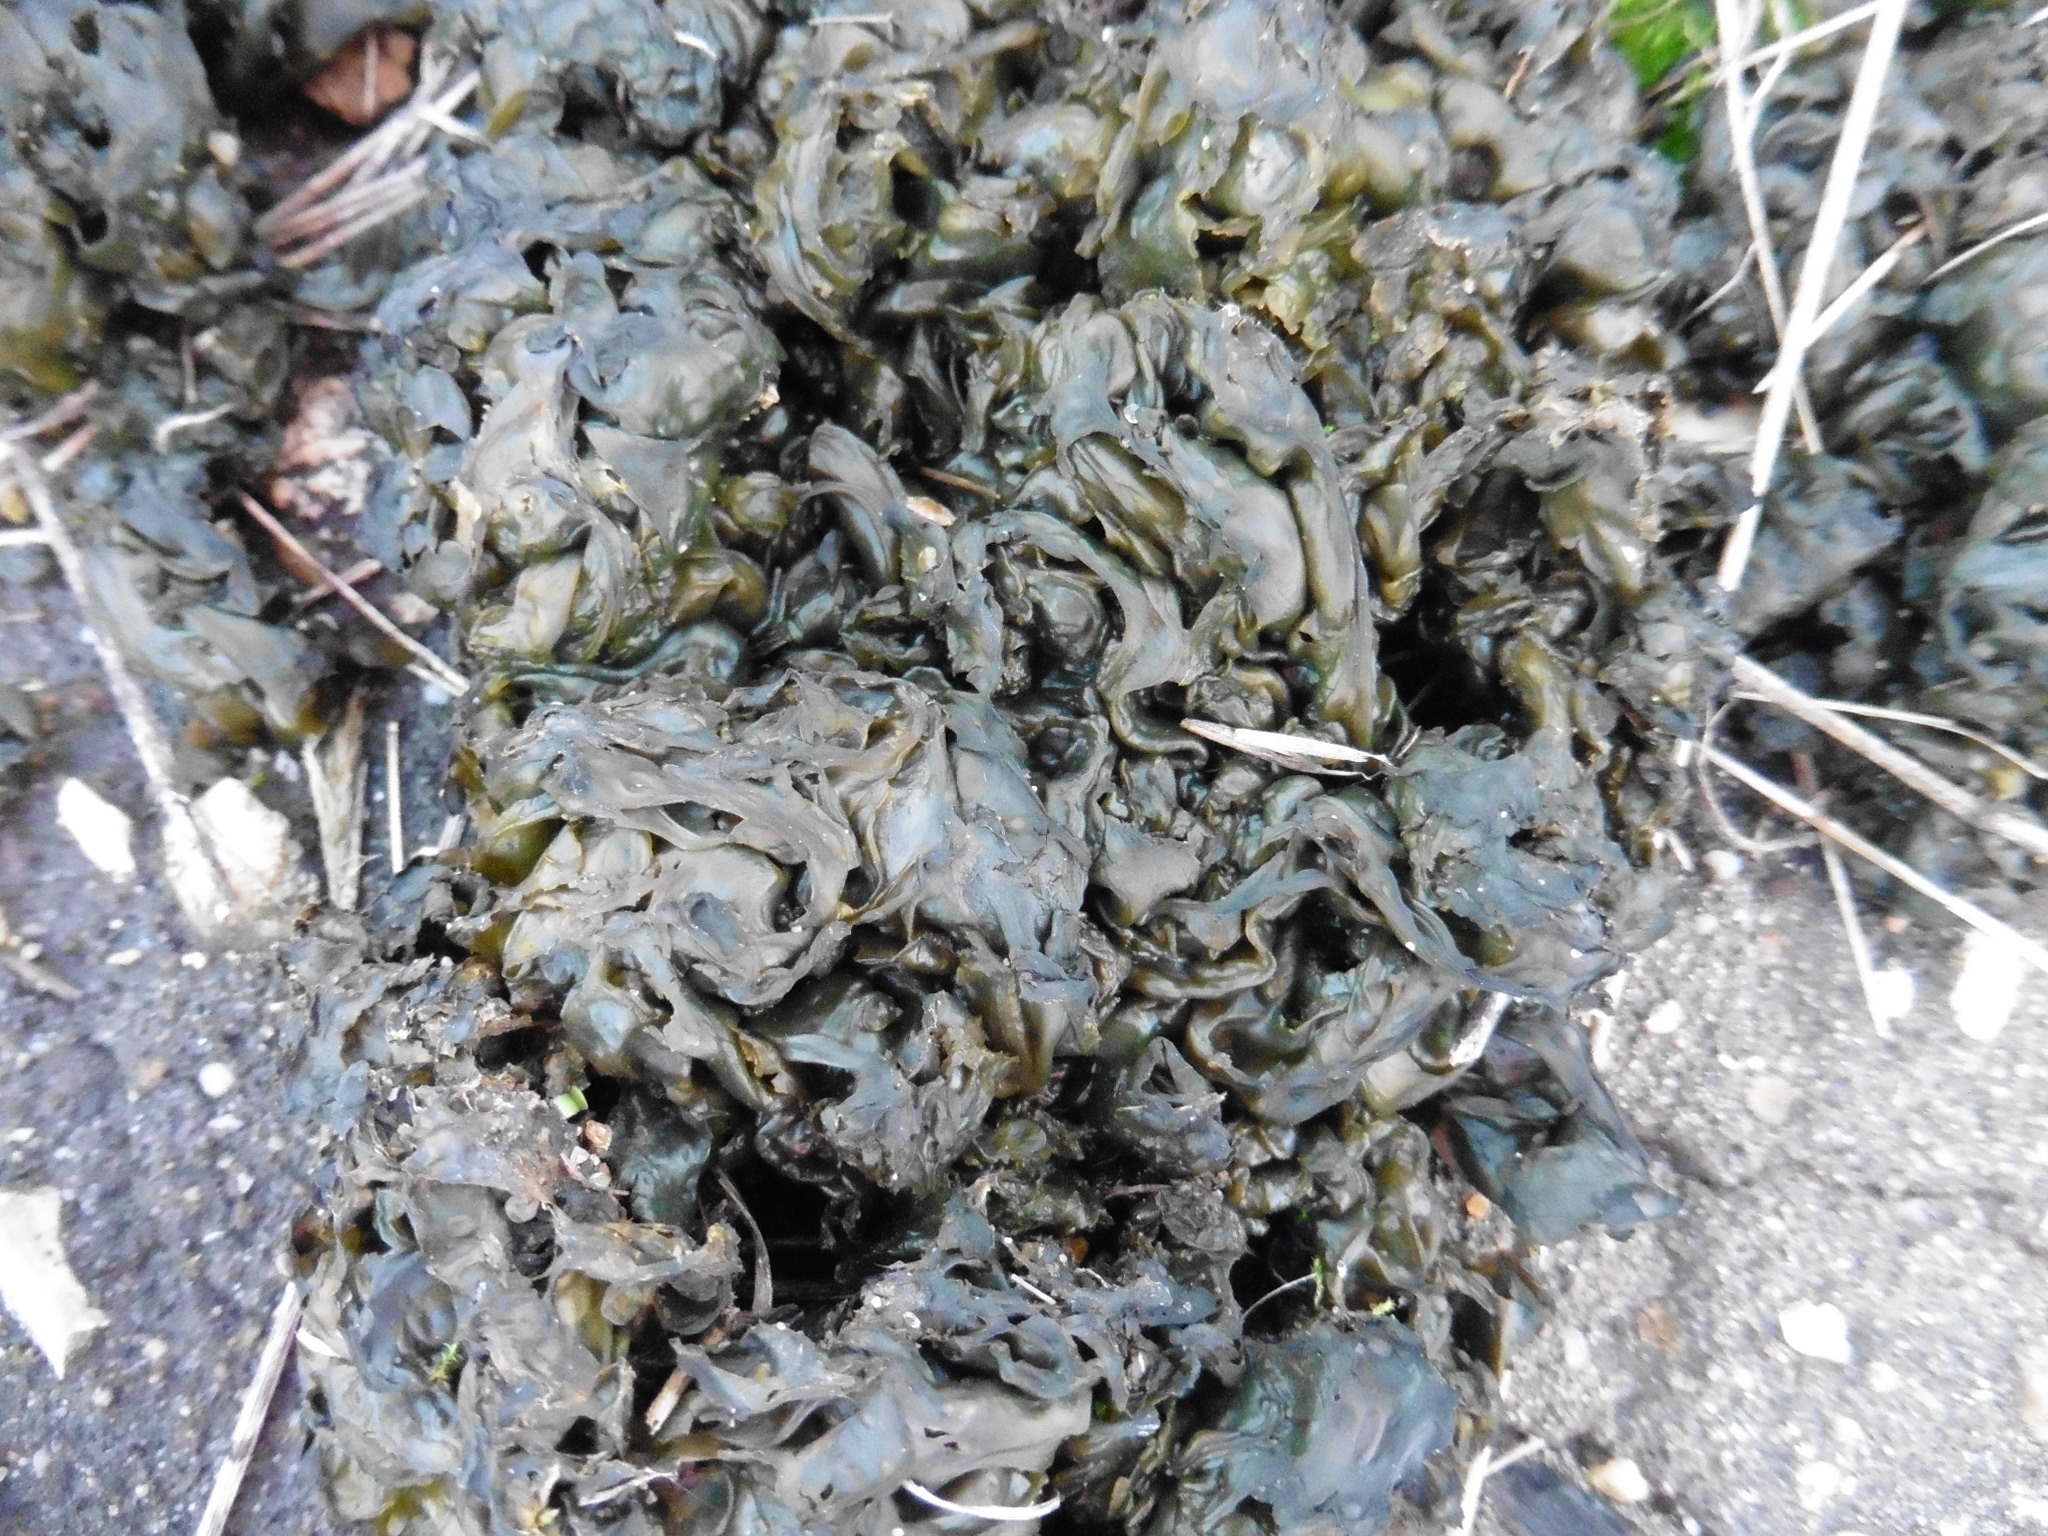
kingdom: Bacteria
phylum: Cyanobacteria
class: Cyanobacteriia
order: Cyanobacteriales
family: Nostocaceae
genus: Nostoc
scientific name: Nostoc commune
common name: Star jelly
